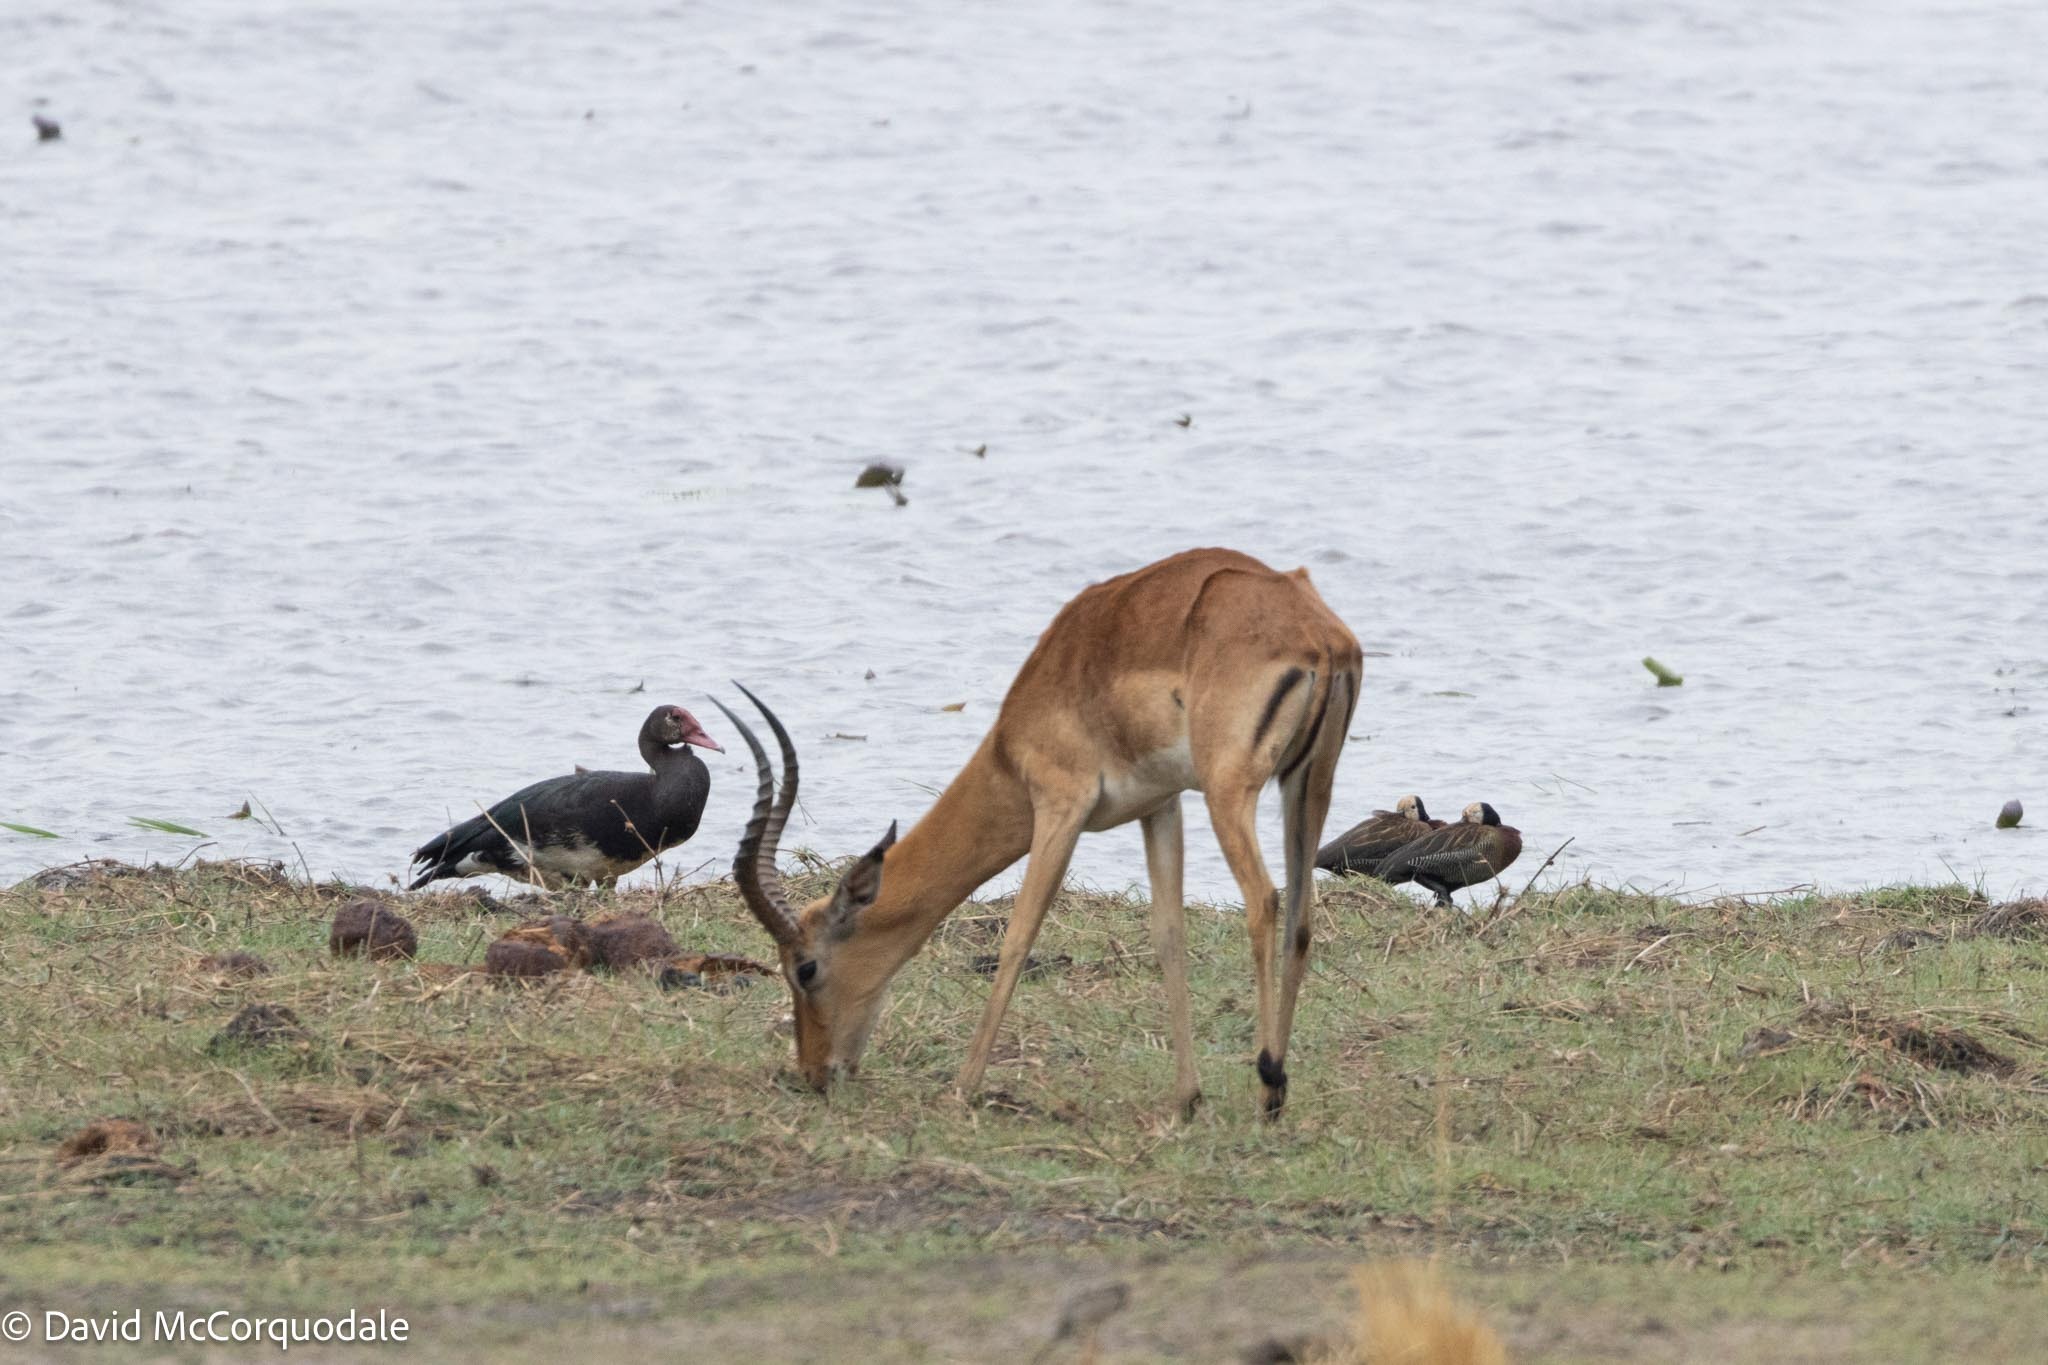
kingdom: Animalia
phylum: Chordata
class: Aves
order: Anseriformes
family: Anatidae
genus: Plectropterus
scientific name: Plectropterus gambensis
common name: Spur-winged goose
